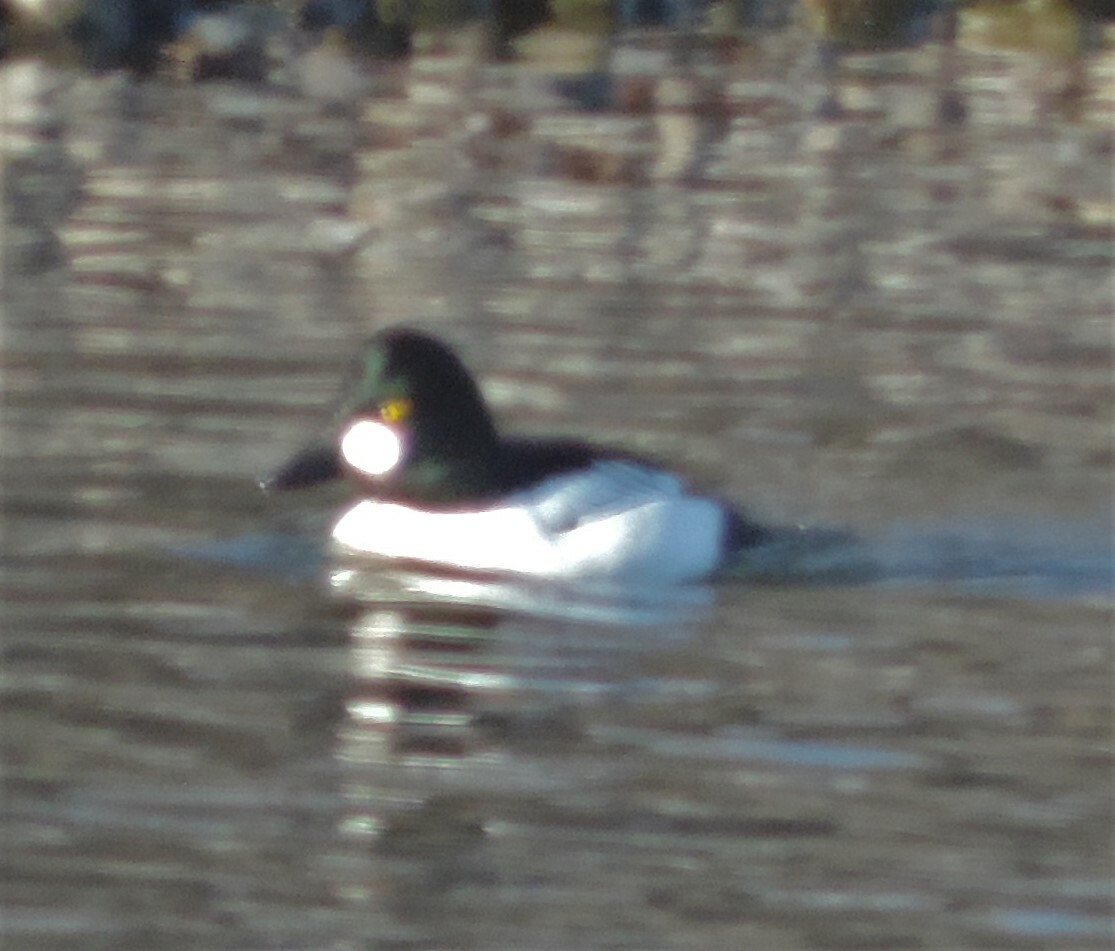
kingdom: Animalia
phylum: Chordata
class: Aves
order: Anseriformes
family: Anatidae
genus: Bucephala
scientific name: Bucephala clangula
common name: Common goldeneye
